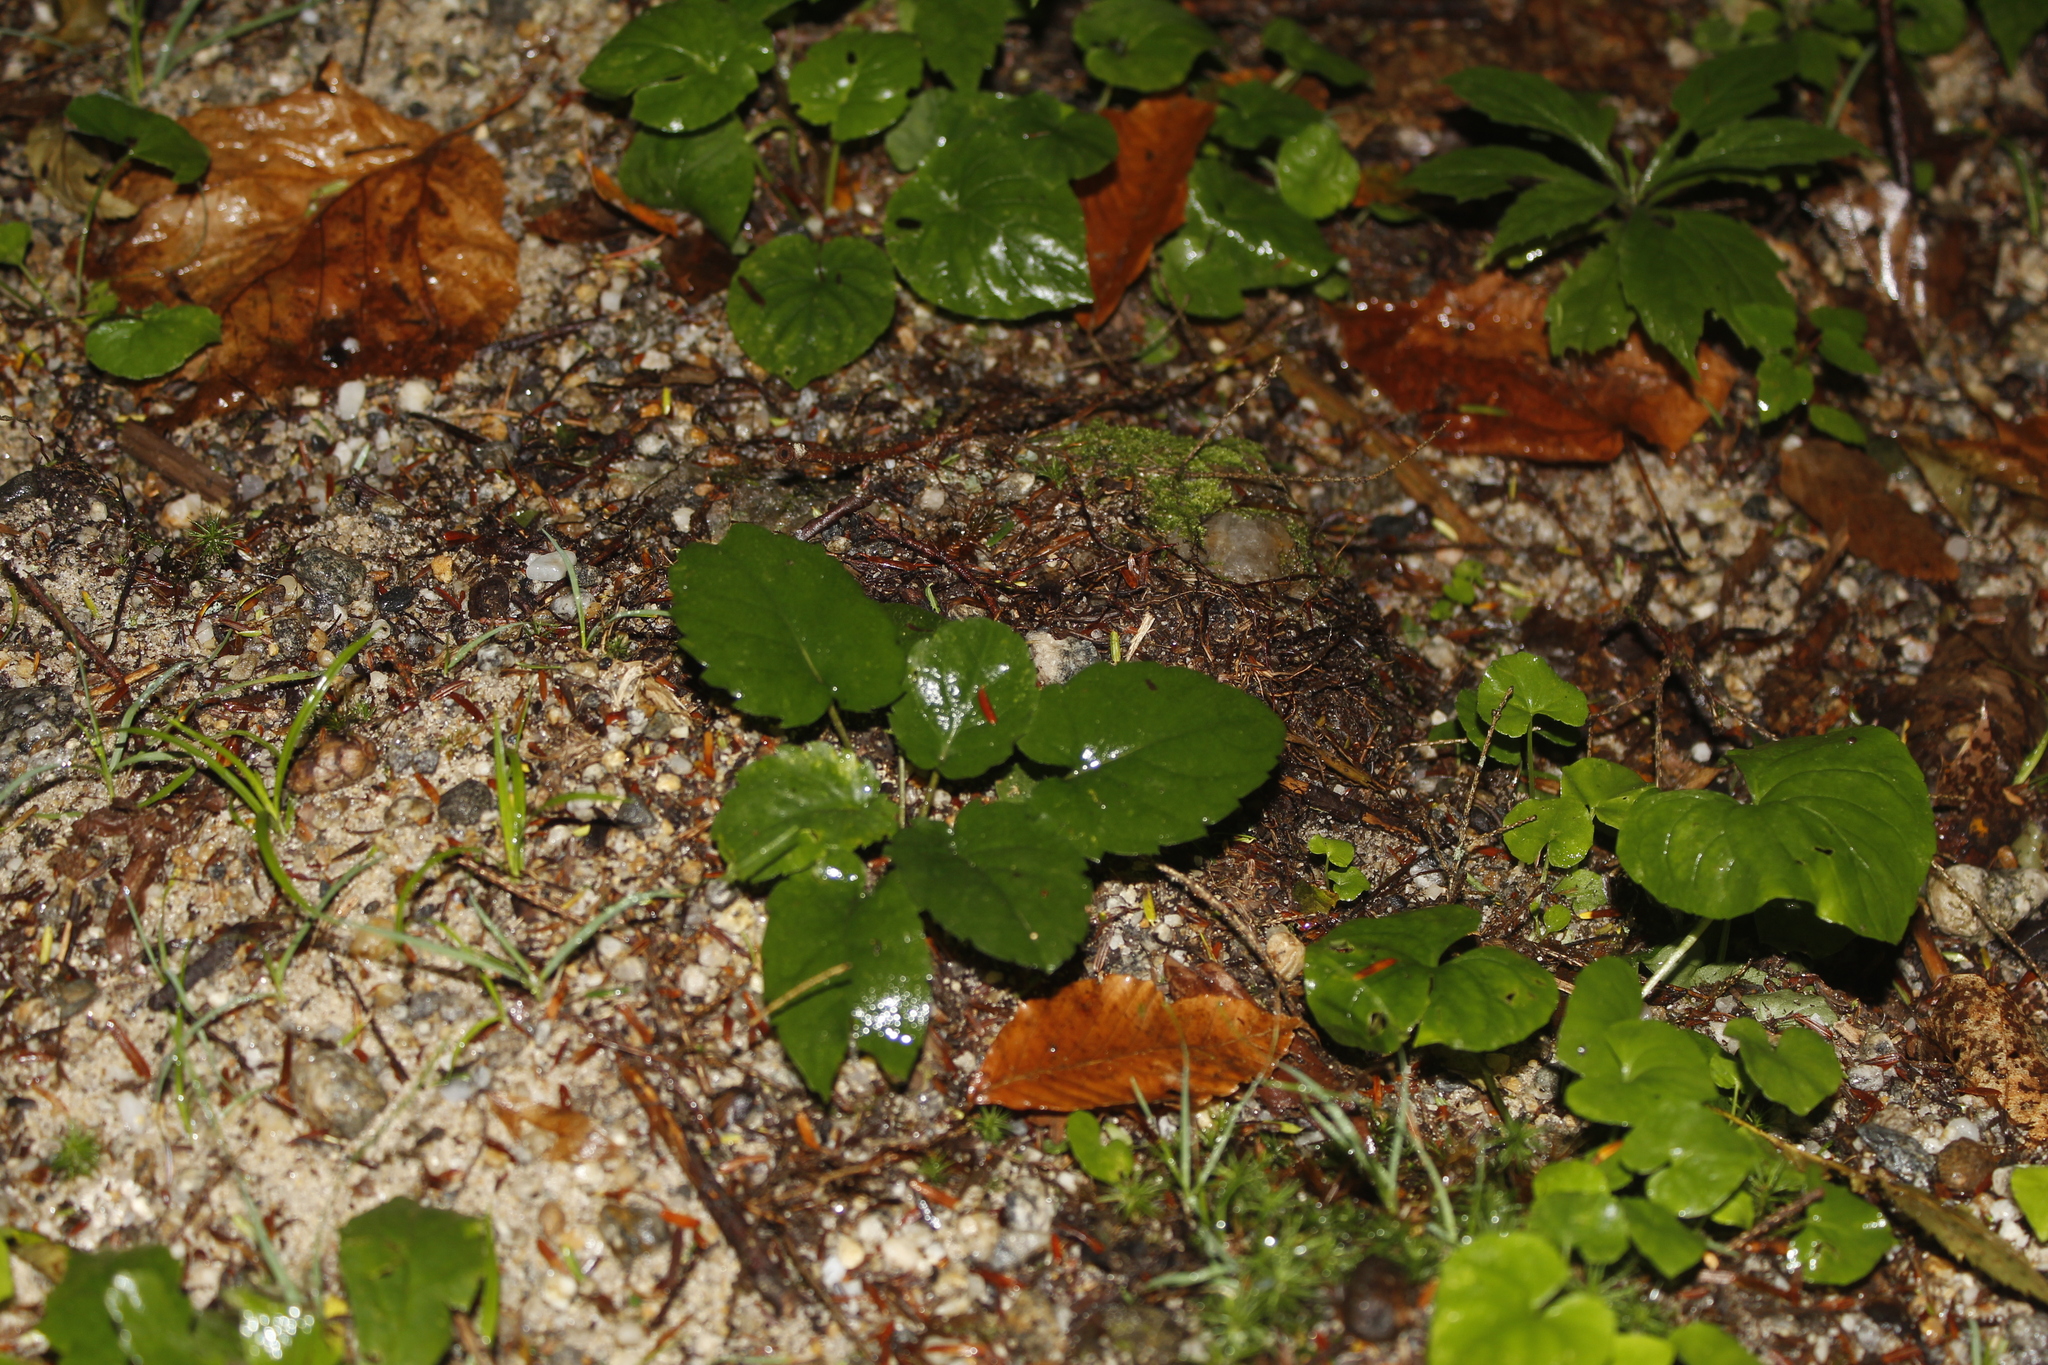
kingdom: Plantae
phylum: Tracheophyta
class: Magnoliopsida
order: Malpighiales
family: Violaceae
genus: Viola
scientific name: Viola rotundifolia
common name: Early yellow violet
